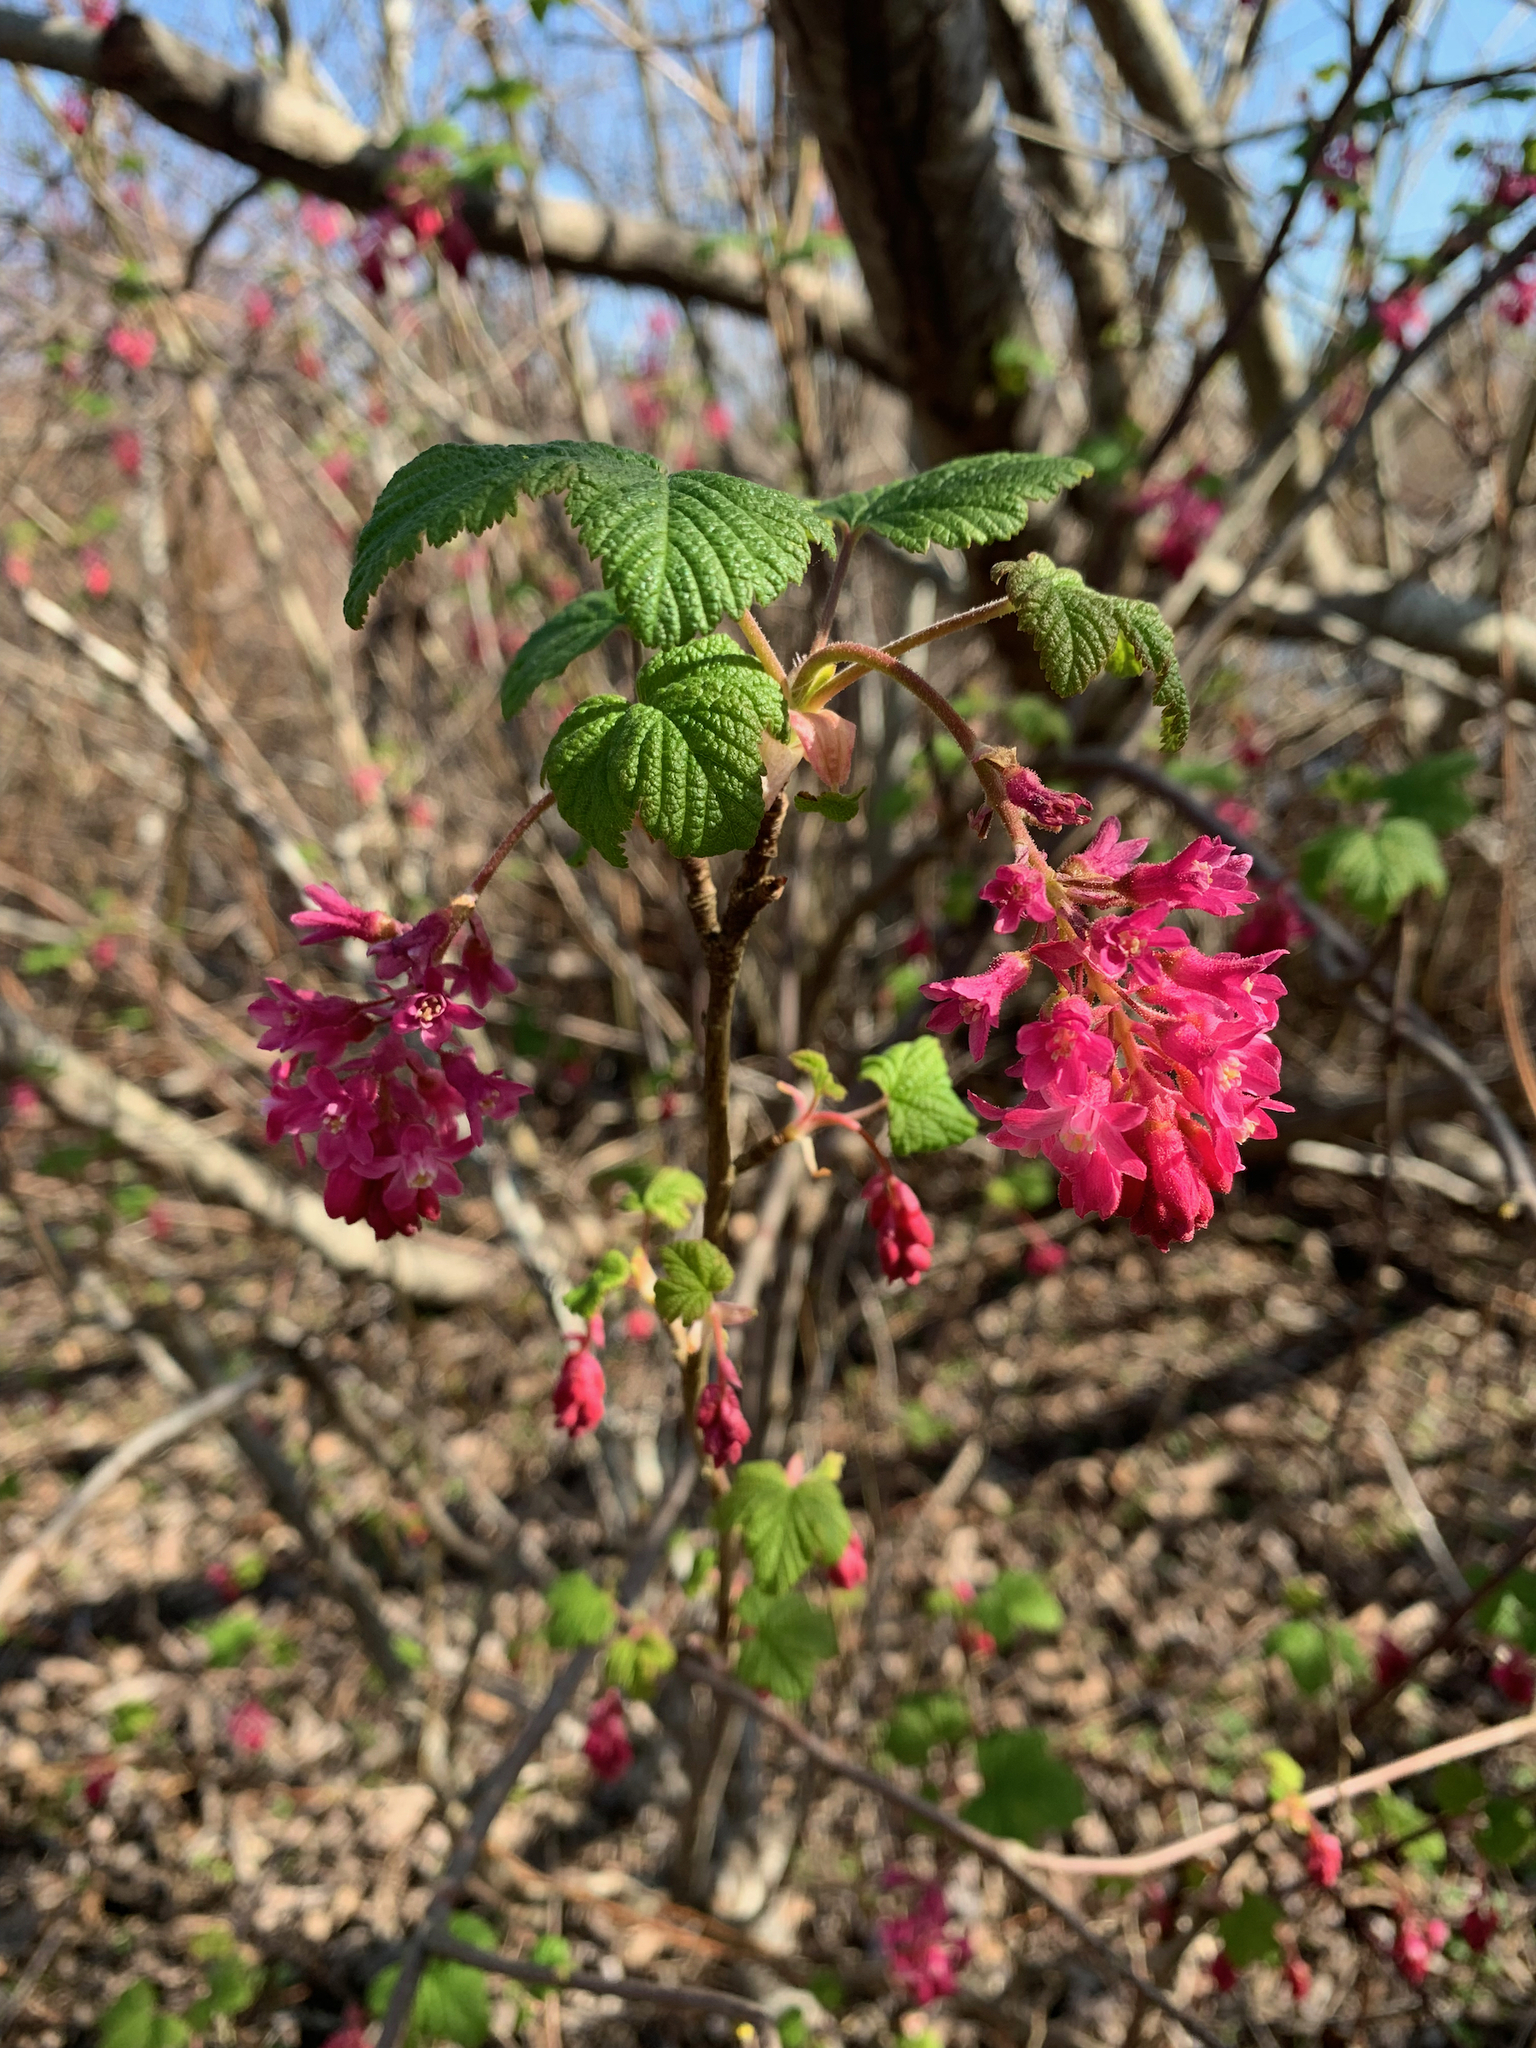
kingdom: Plantae
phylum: Tracheophyta
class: Magnoliopsida
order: Saxifragales
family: Grossulariaceae
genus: Ribes
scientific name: Ribes sanguineum
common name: Flowering currant
